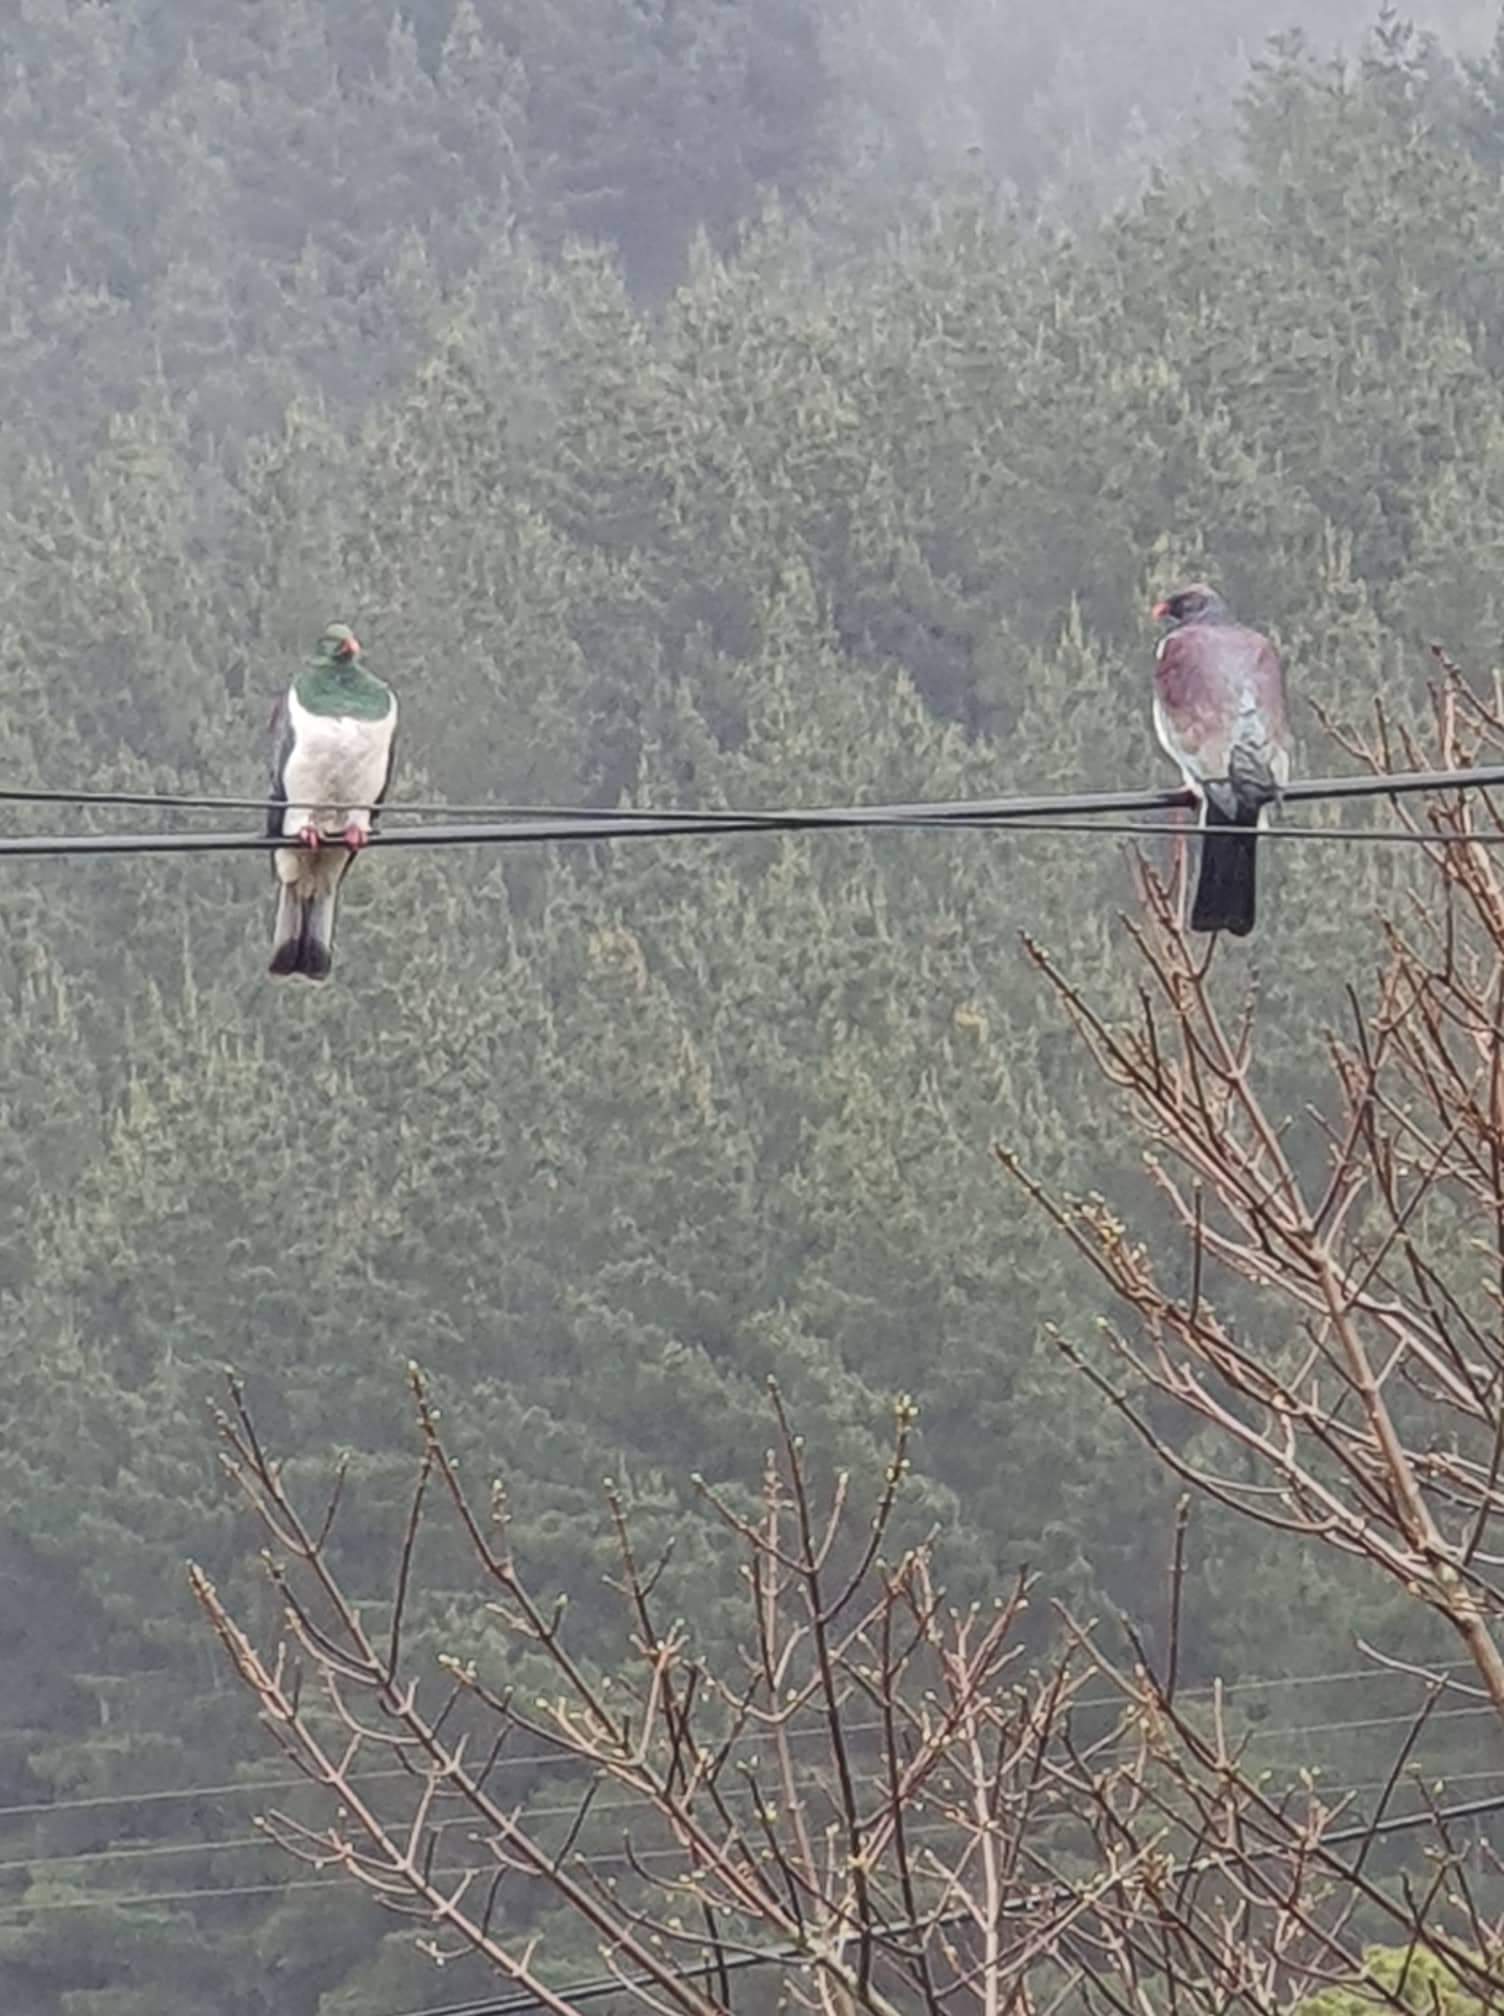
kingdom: Animalia
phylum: Chordata
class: Aves
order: Columbiformes
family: Columbidae
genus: Hemiphaga
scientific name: Hemiphaga novaeseelandiae
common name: New zealand pigeon
